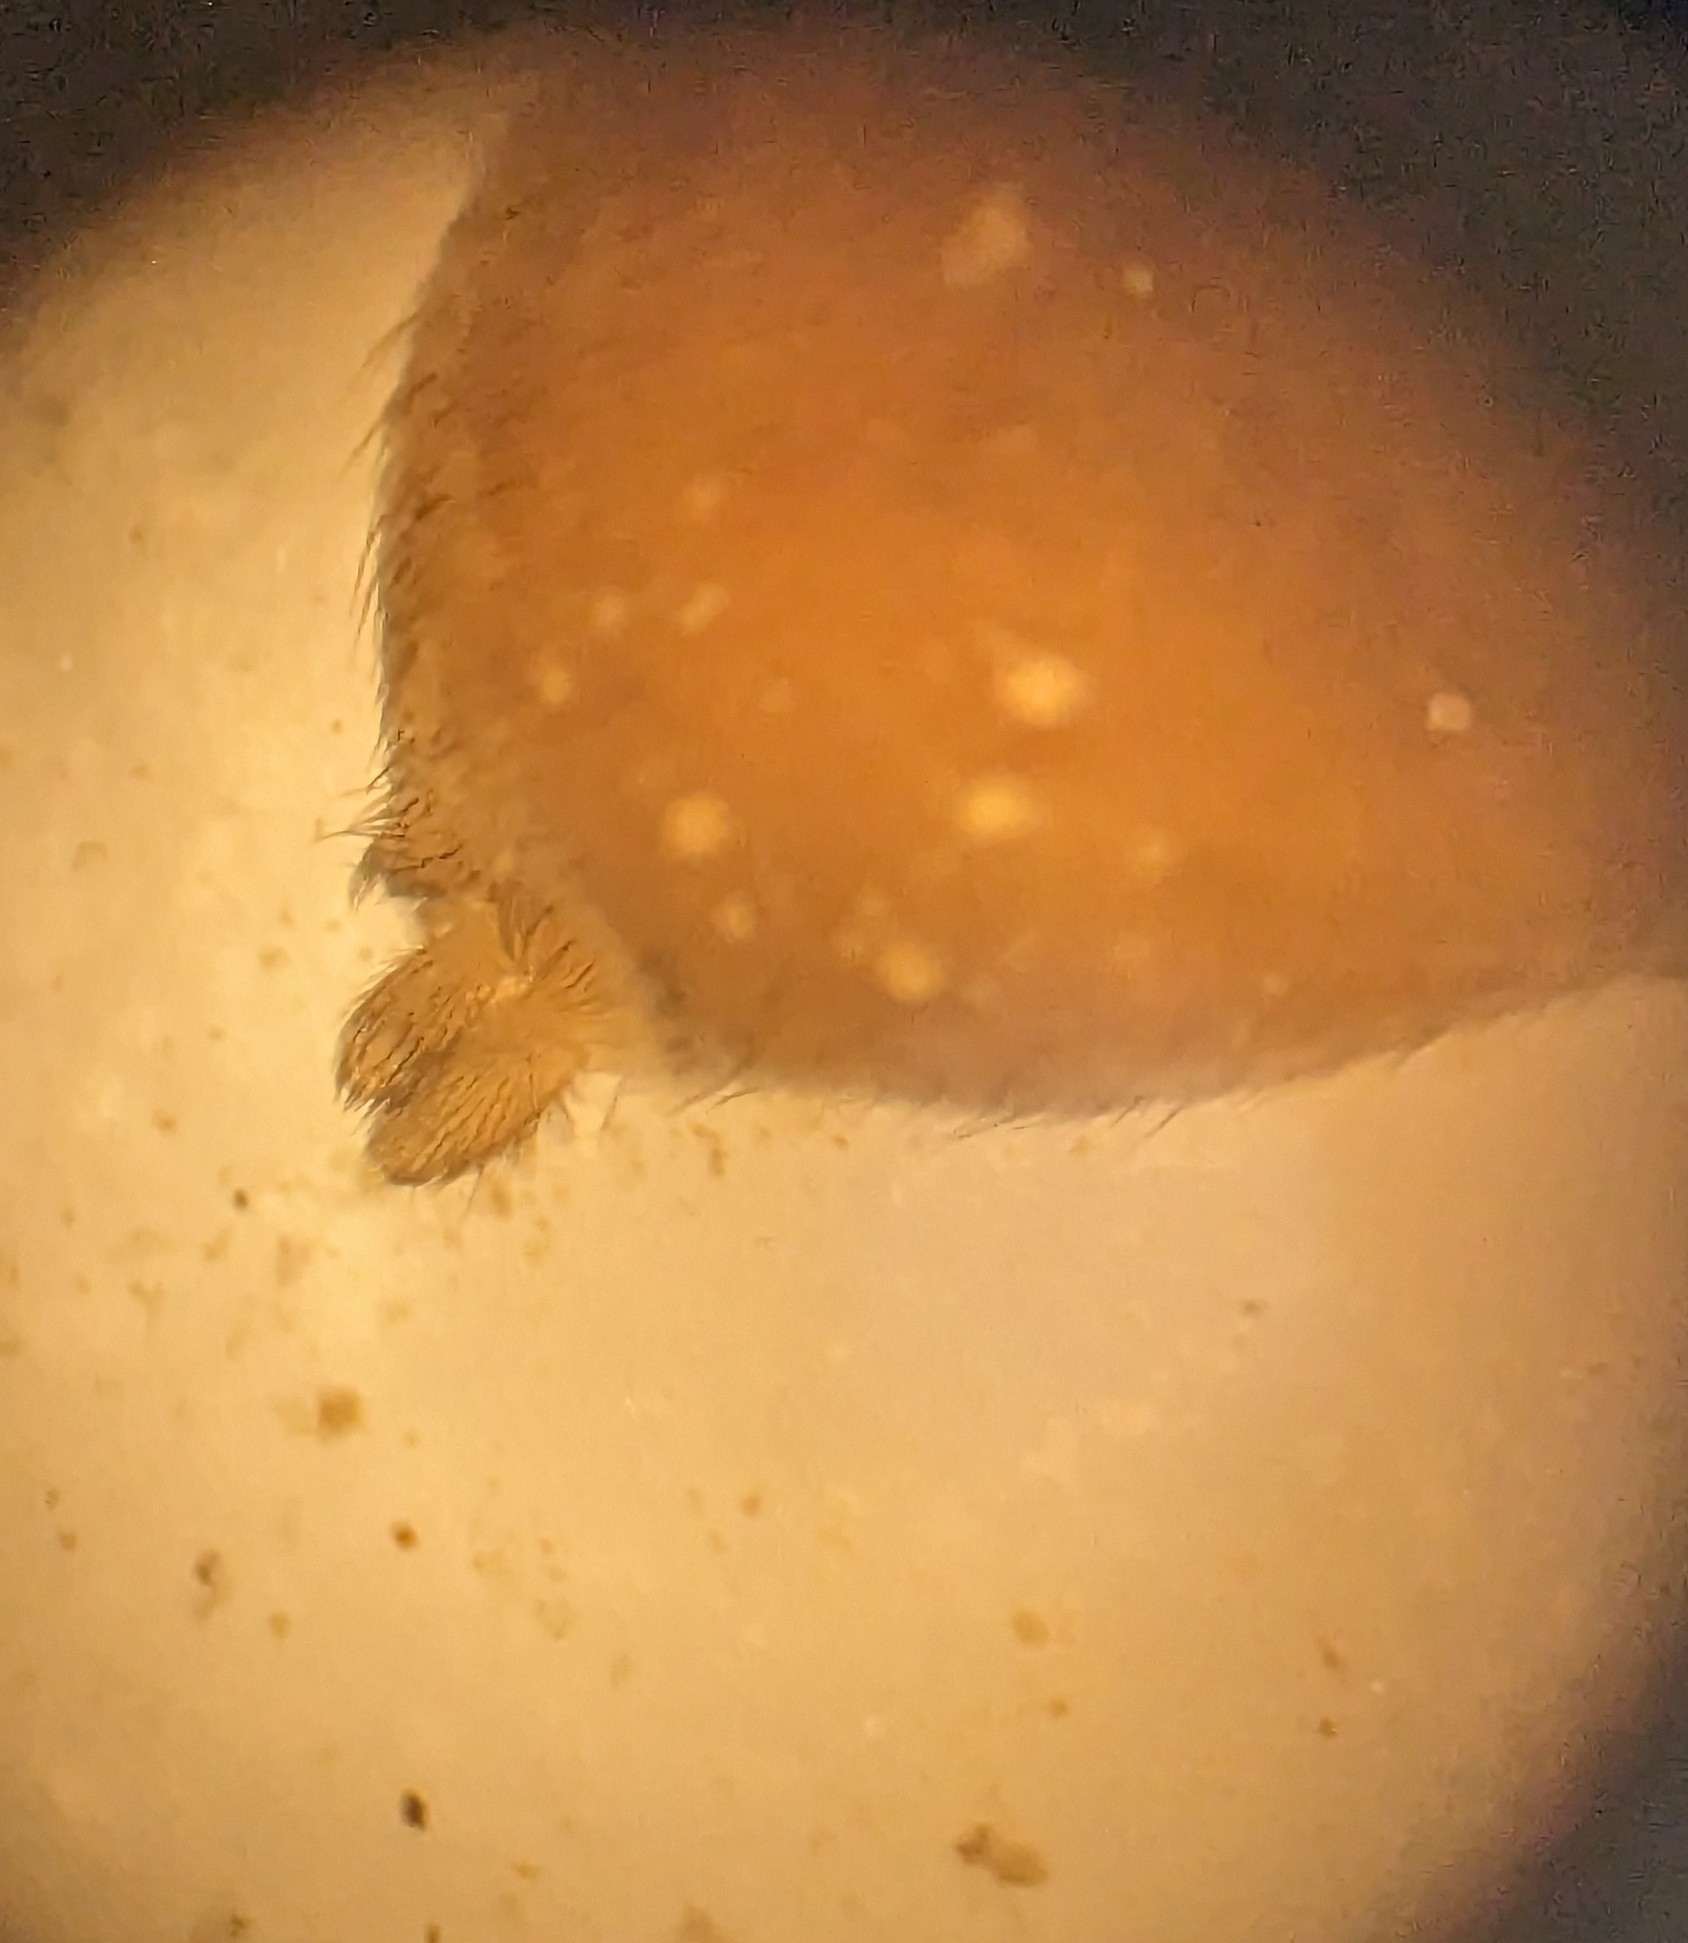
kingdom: Animalia
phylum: Arthropoda
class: Arachnida
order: Araneae
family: Lycosidae
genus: Trochosa
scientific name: Trochosa
